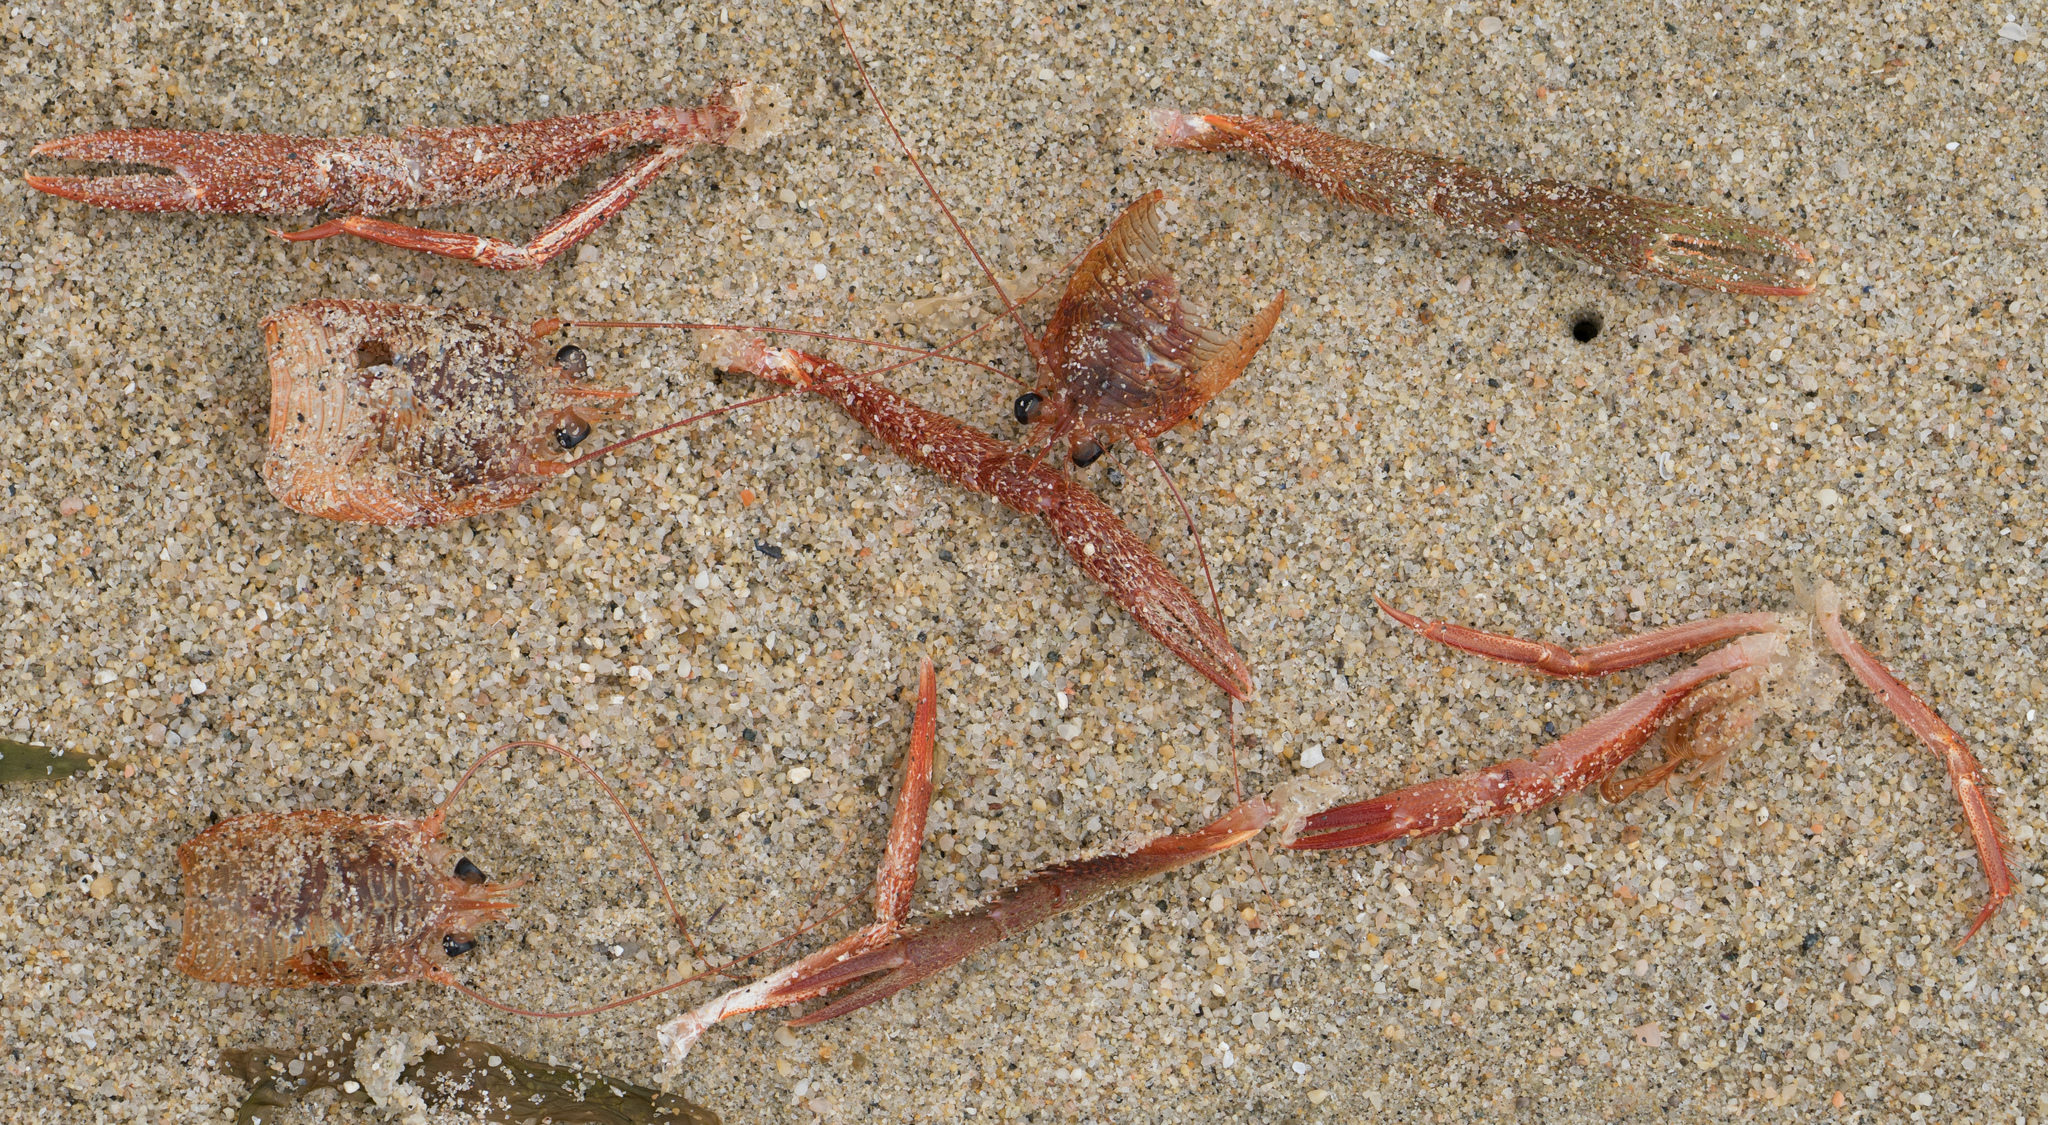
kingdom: Animalia
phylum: Arthropoda
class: Malacostraca
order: Decapoda
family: Munididae
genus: Grimothea
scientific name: Grimothea planipes
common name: Pelagic red crab
